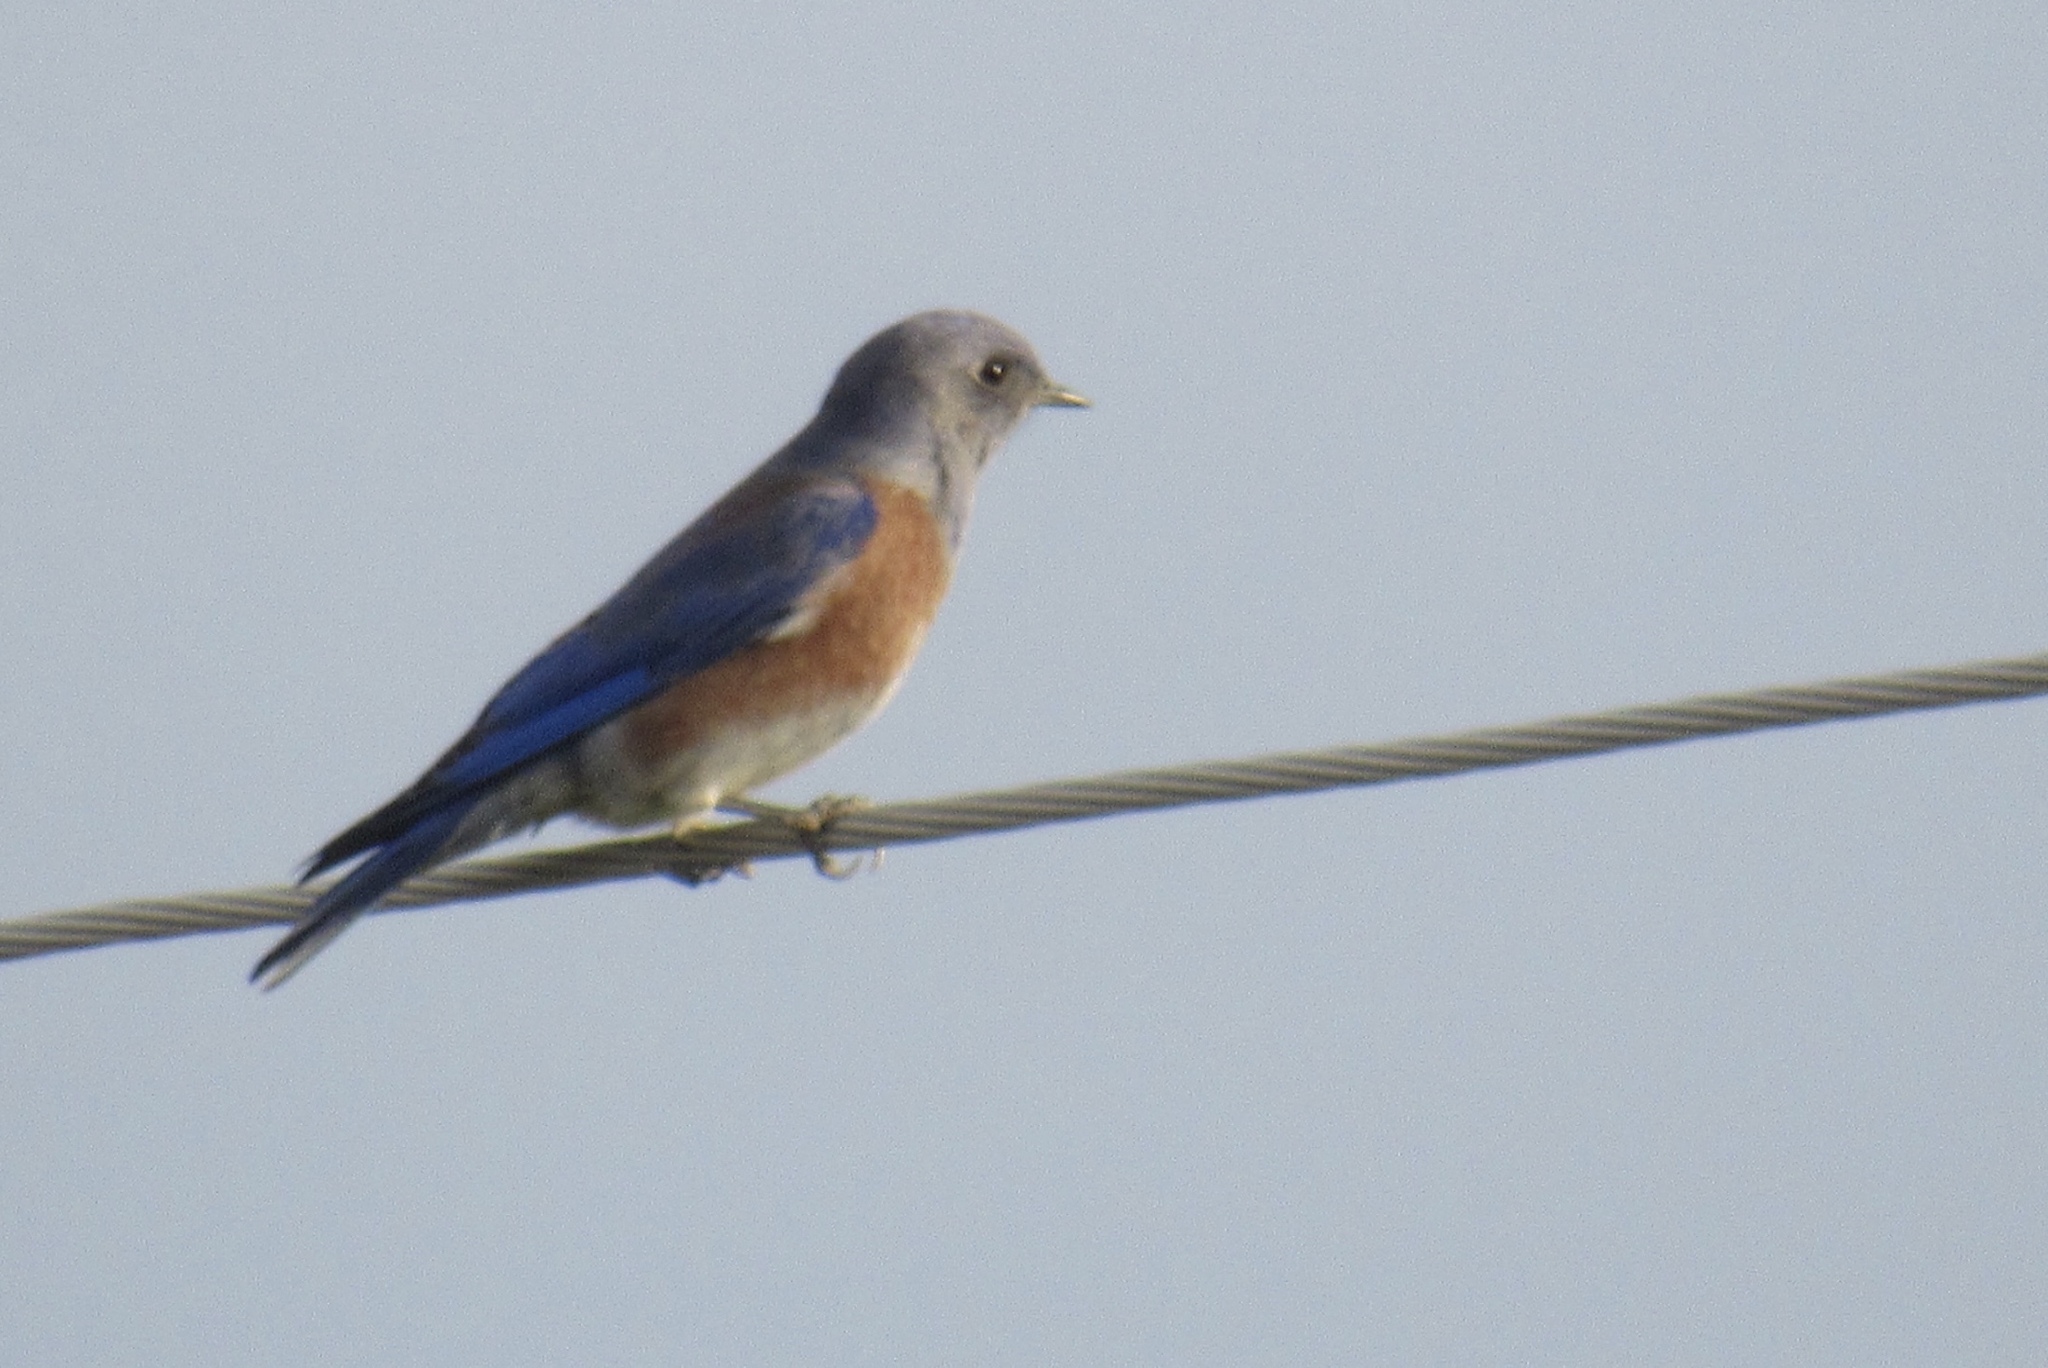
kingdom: Animalia
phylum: Chordata
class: Aves
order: Passeriformes
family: Turdidae
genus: Sialia
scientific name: Sialia mexicana
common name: Western bluebird
